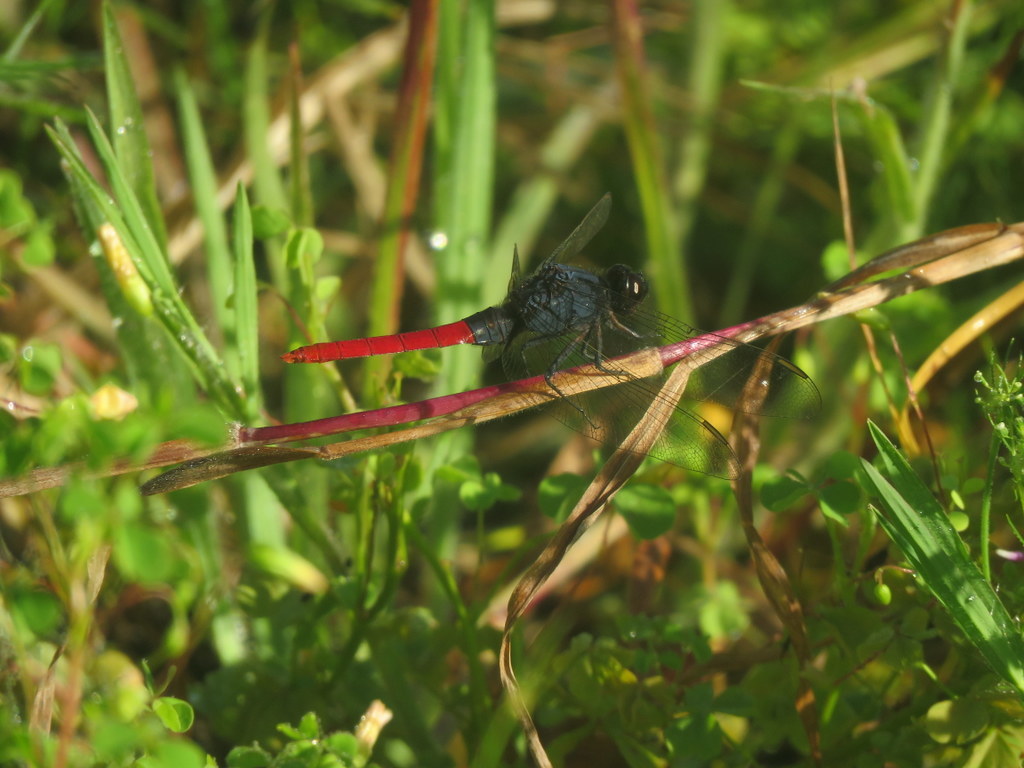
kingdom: Animalia
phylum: Arthropoda
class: Insecta
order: Odonata
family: Libellulidae
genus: Erythemis
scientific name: Erythemis peruviana
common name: Flame-tailed pondhawk
